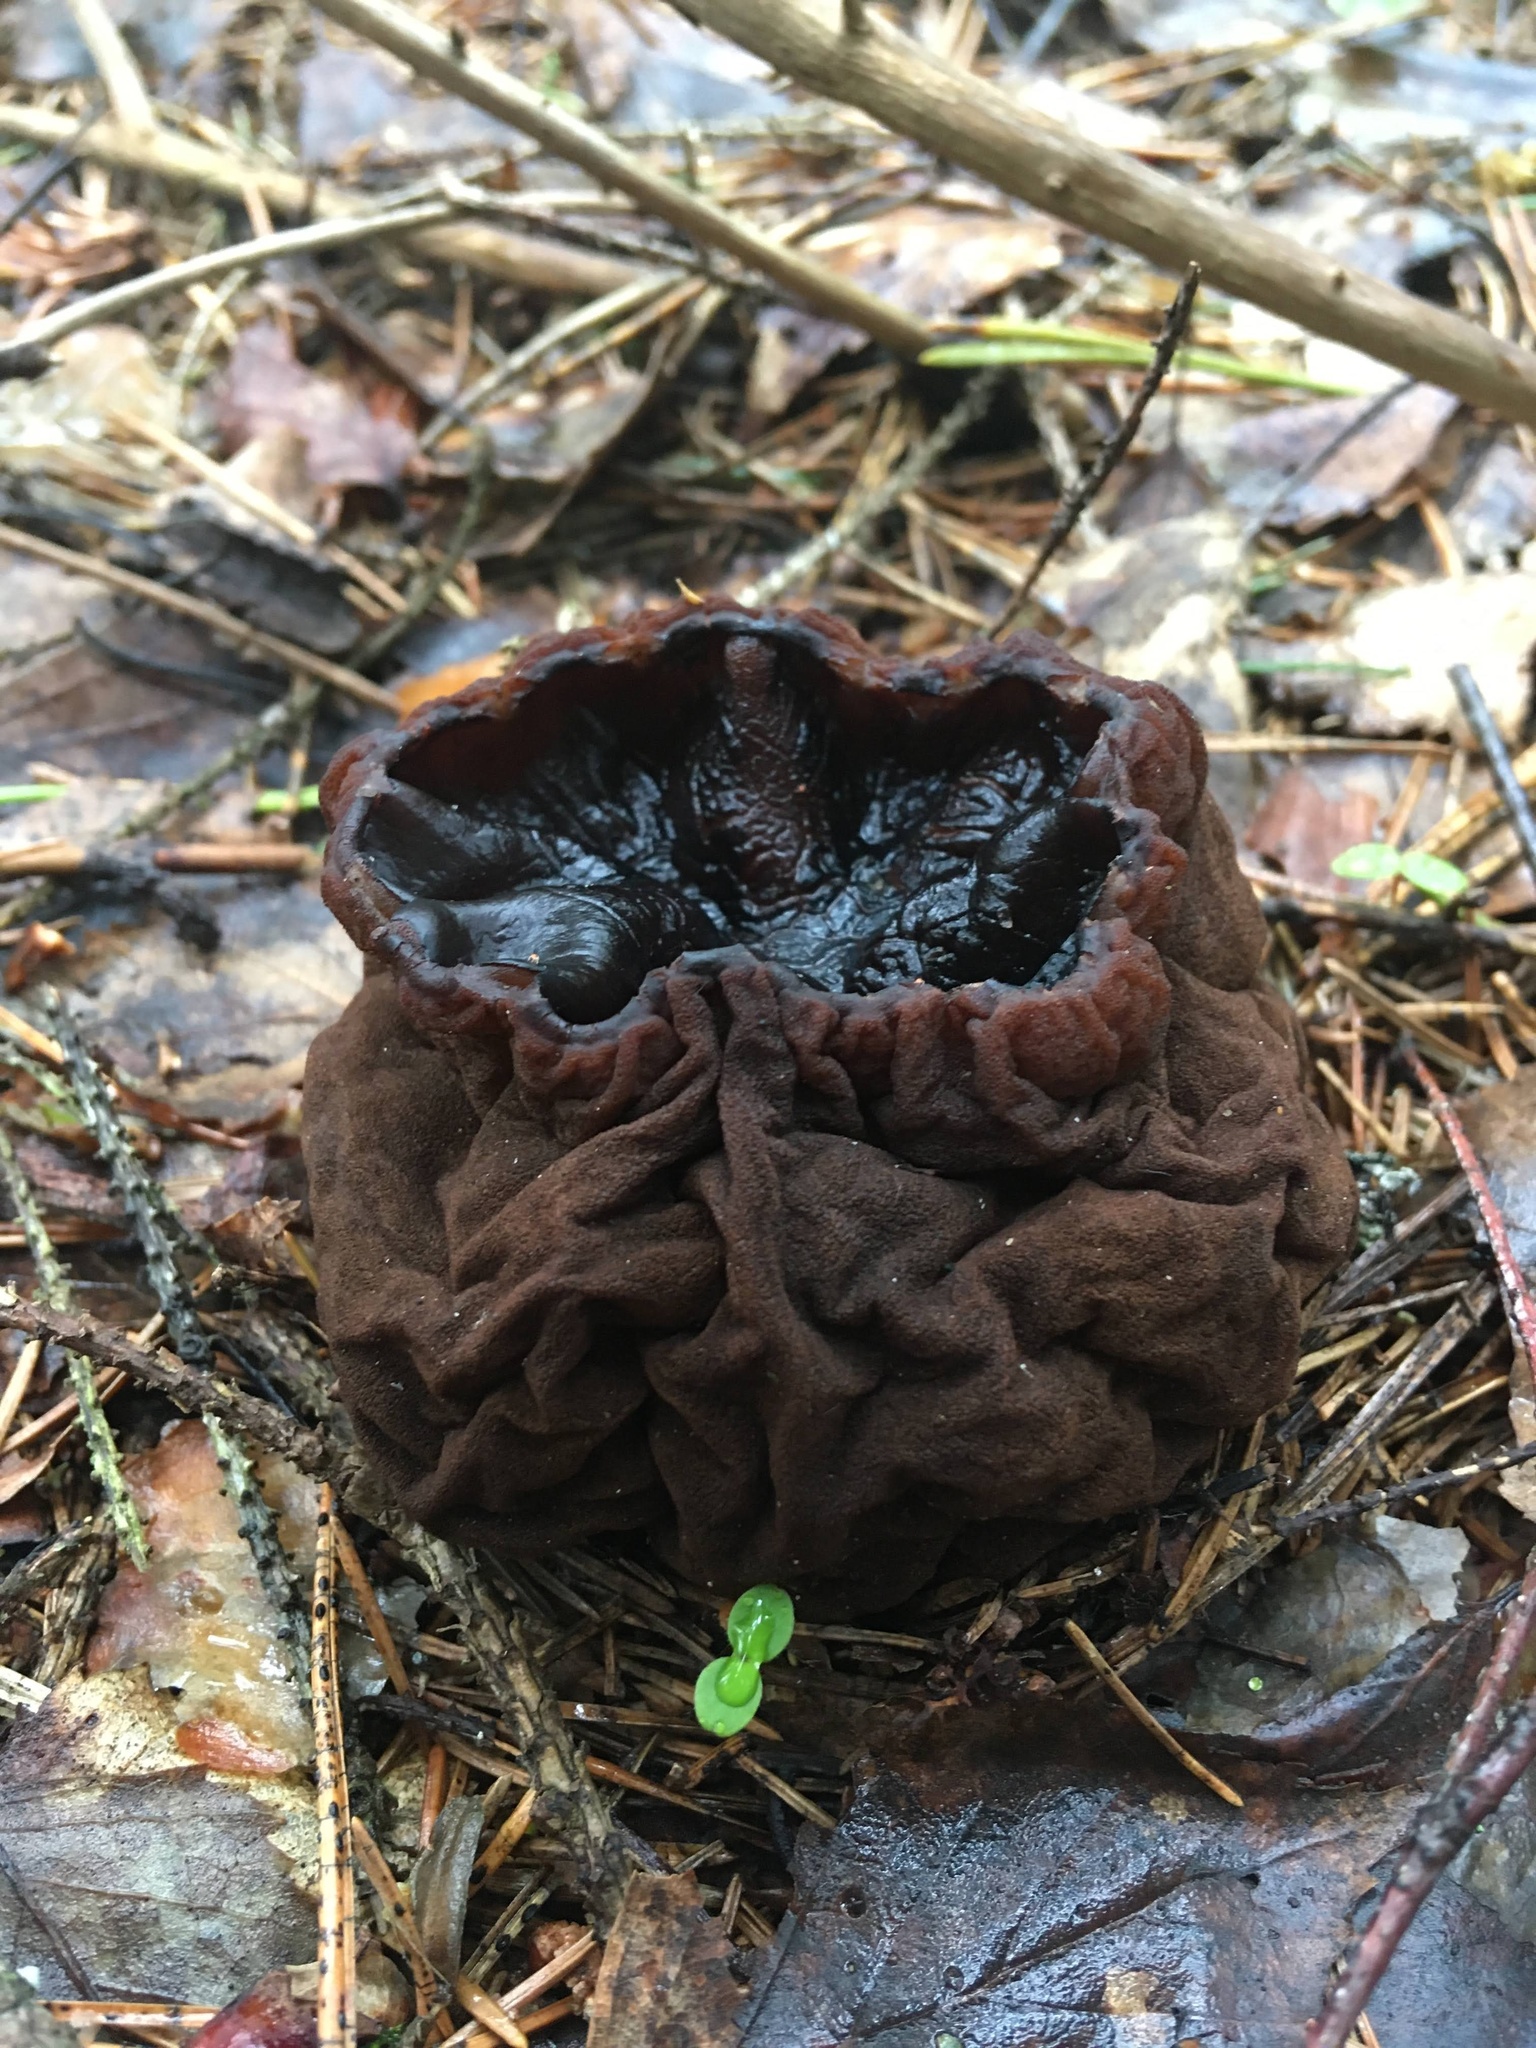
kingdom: Fungi
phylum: Ascomycota
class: Pezizomycetes
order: Pezizales
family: Sarcosomataceae
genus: Sarcosoma
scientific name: Sarcosoma globosum
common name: Charred-pancake cup
